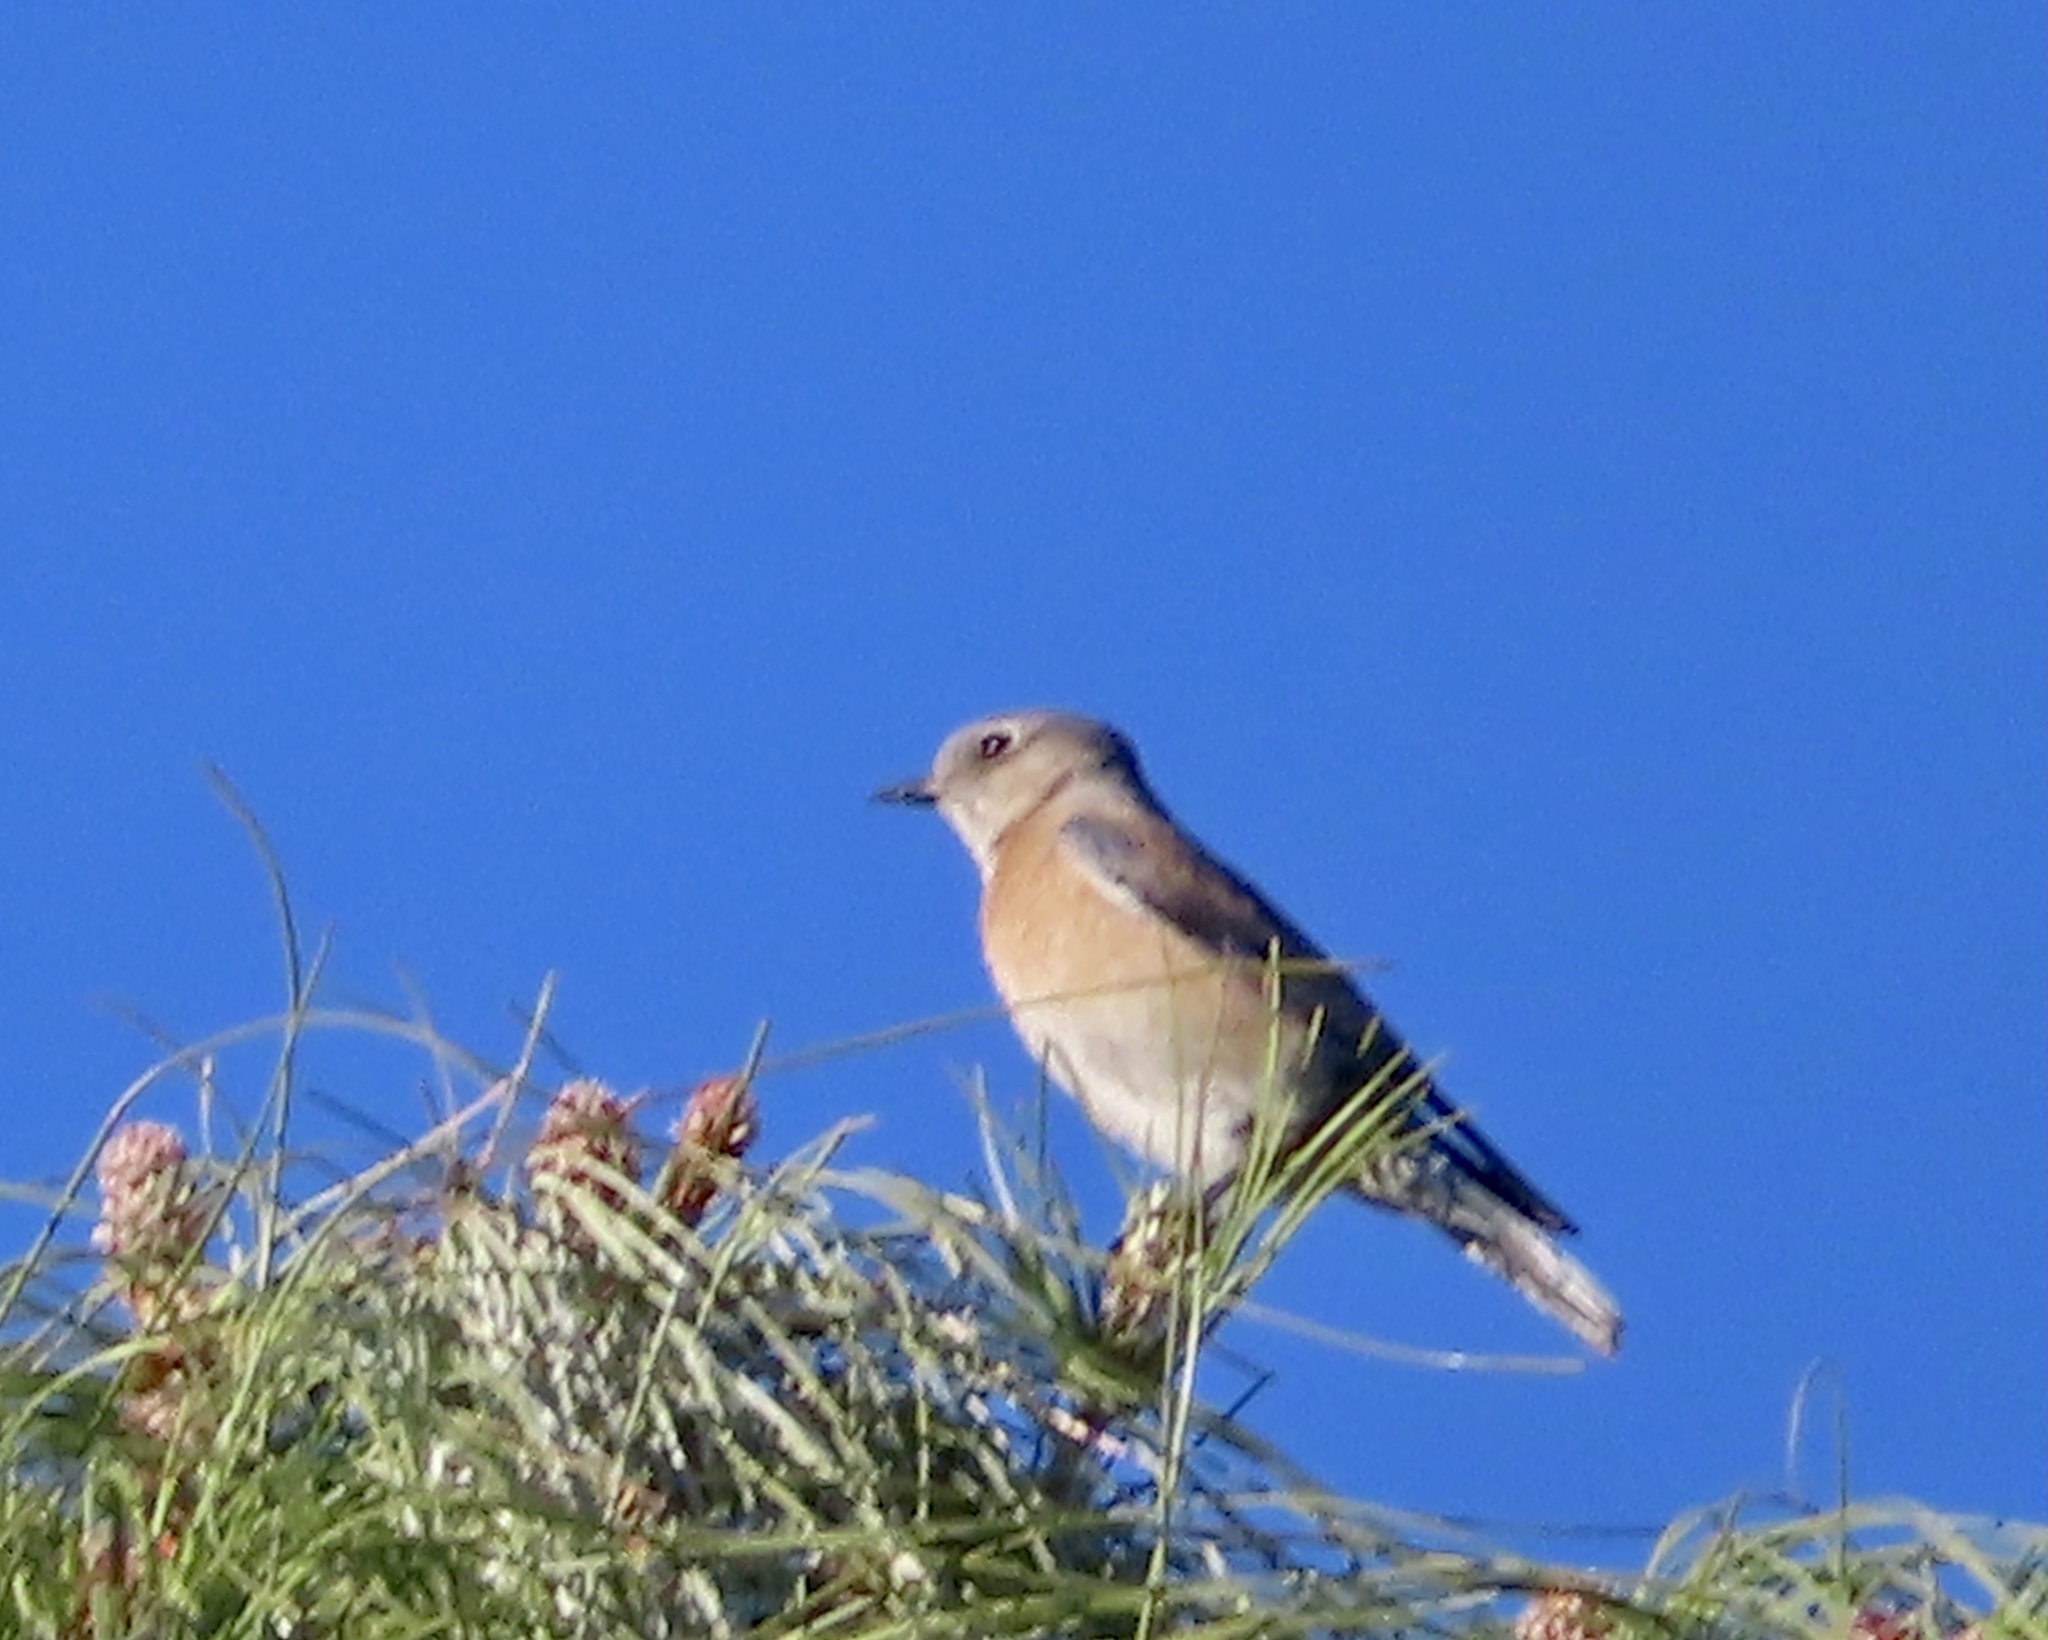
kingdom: Animalia
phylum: Chordata
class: Aves
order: Passeriformes
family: Turdidae
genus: Sialia
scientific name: Sialia mexicana
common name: Western bluebird
